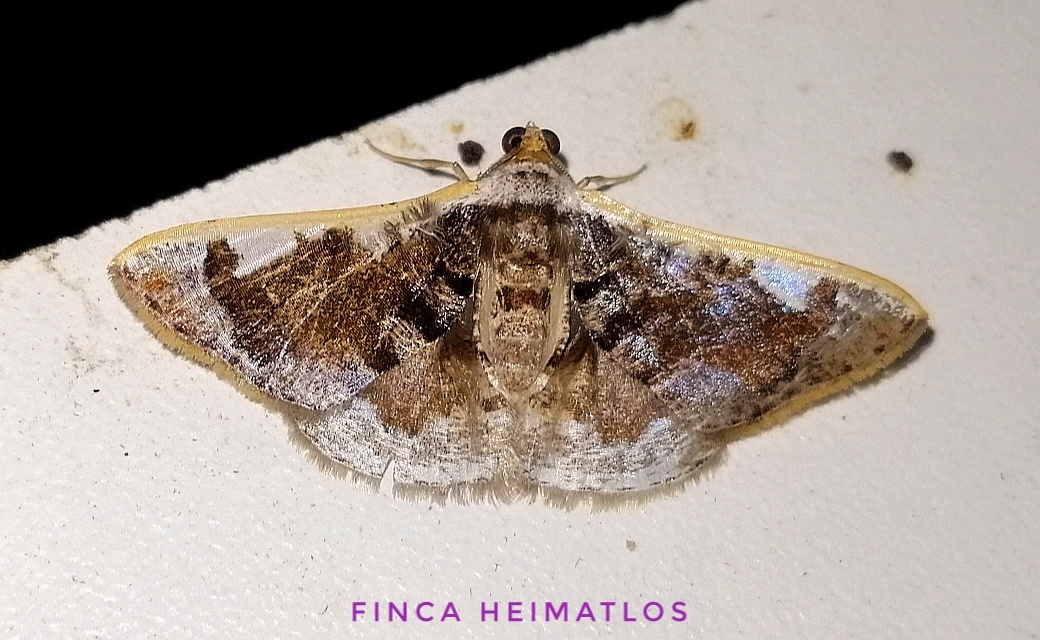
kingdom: Animalia
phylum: Arthropoda
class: Insecta
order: Lepidoptera
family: Geometridae
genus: Gyostega
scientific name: Gyostega floccosa
